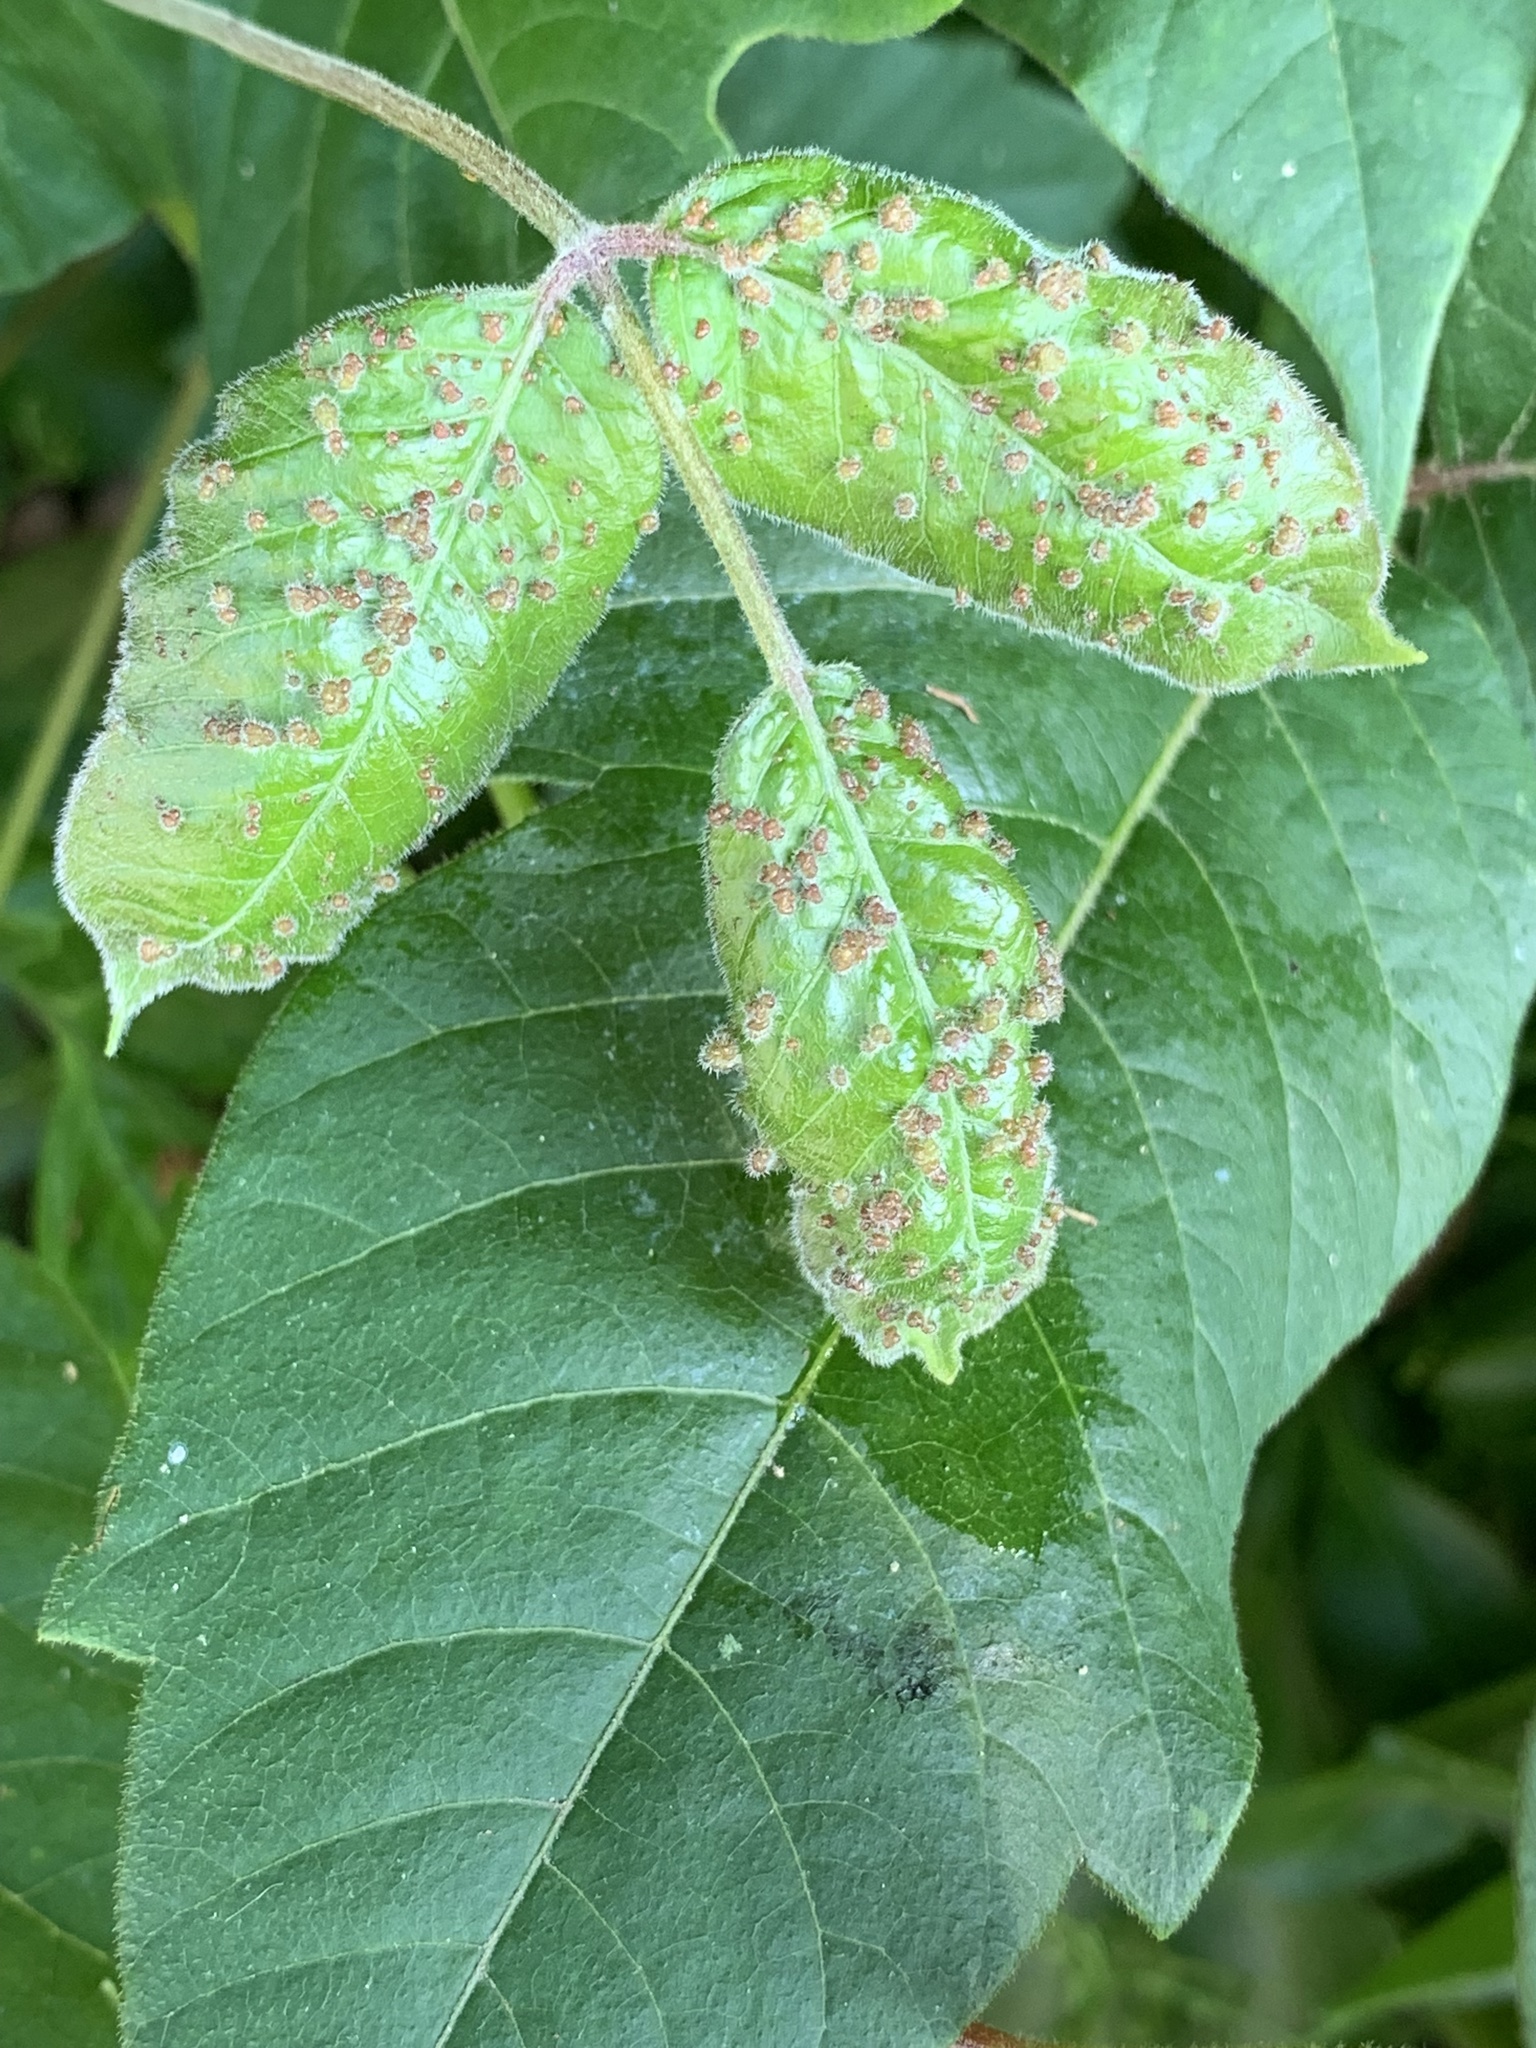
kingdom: Animalia
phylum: Arthropoda
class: Arachnida
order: Trombidiformes
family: Eriophyidae
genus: Aculops
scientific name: Aculops
